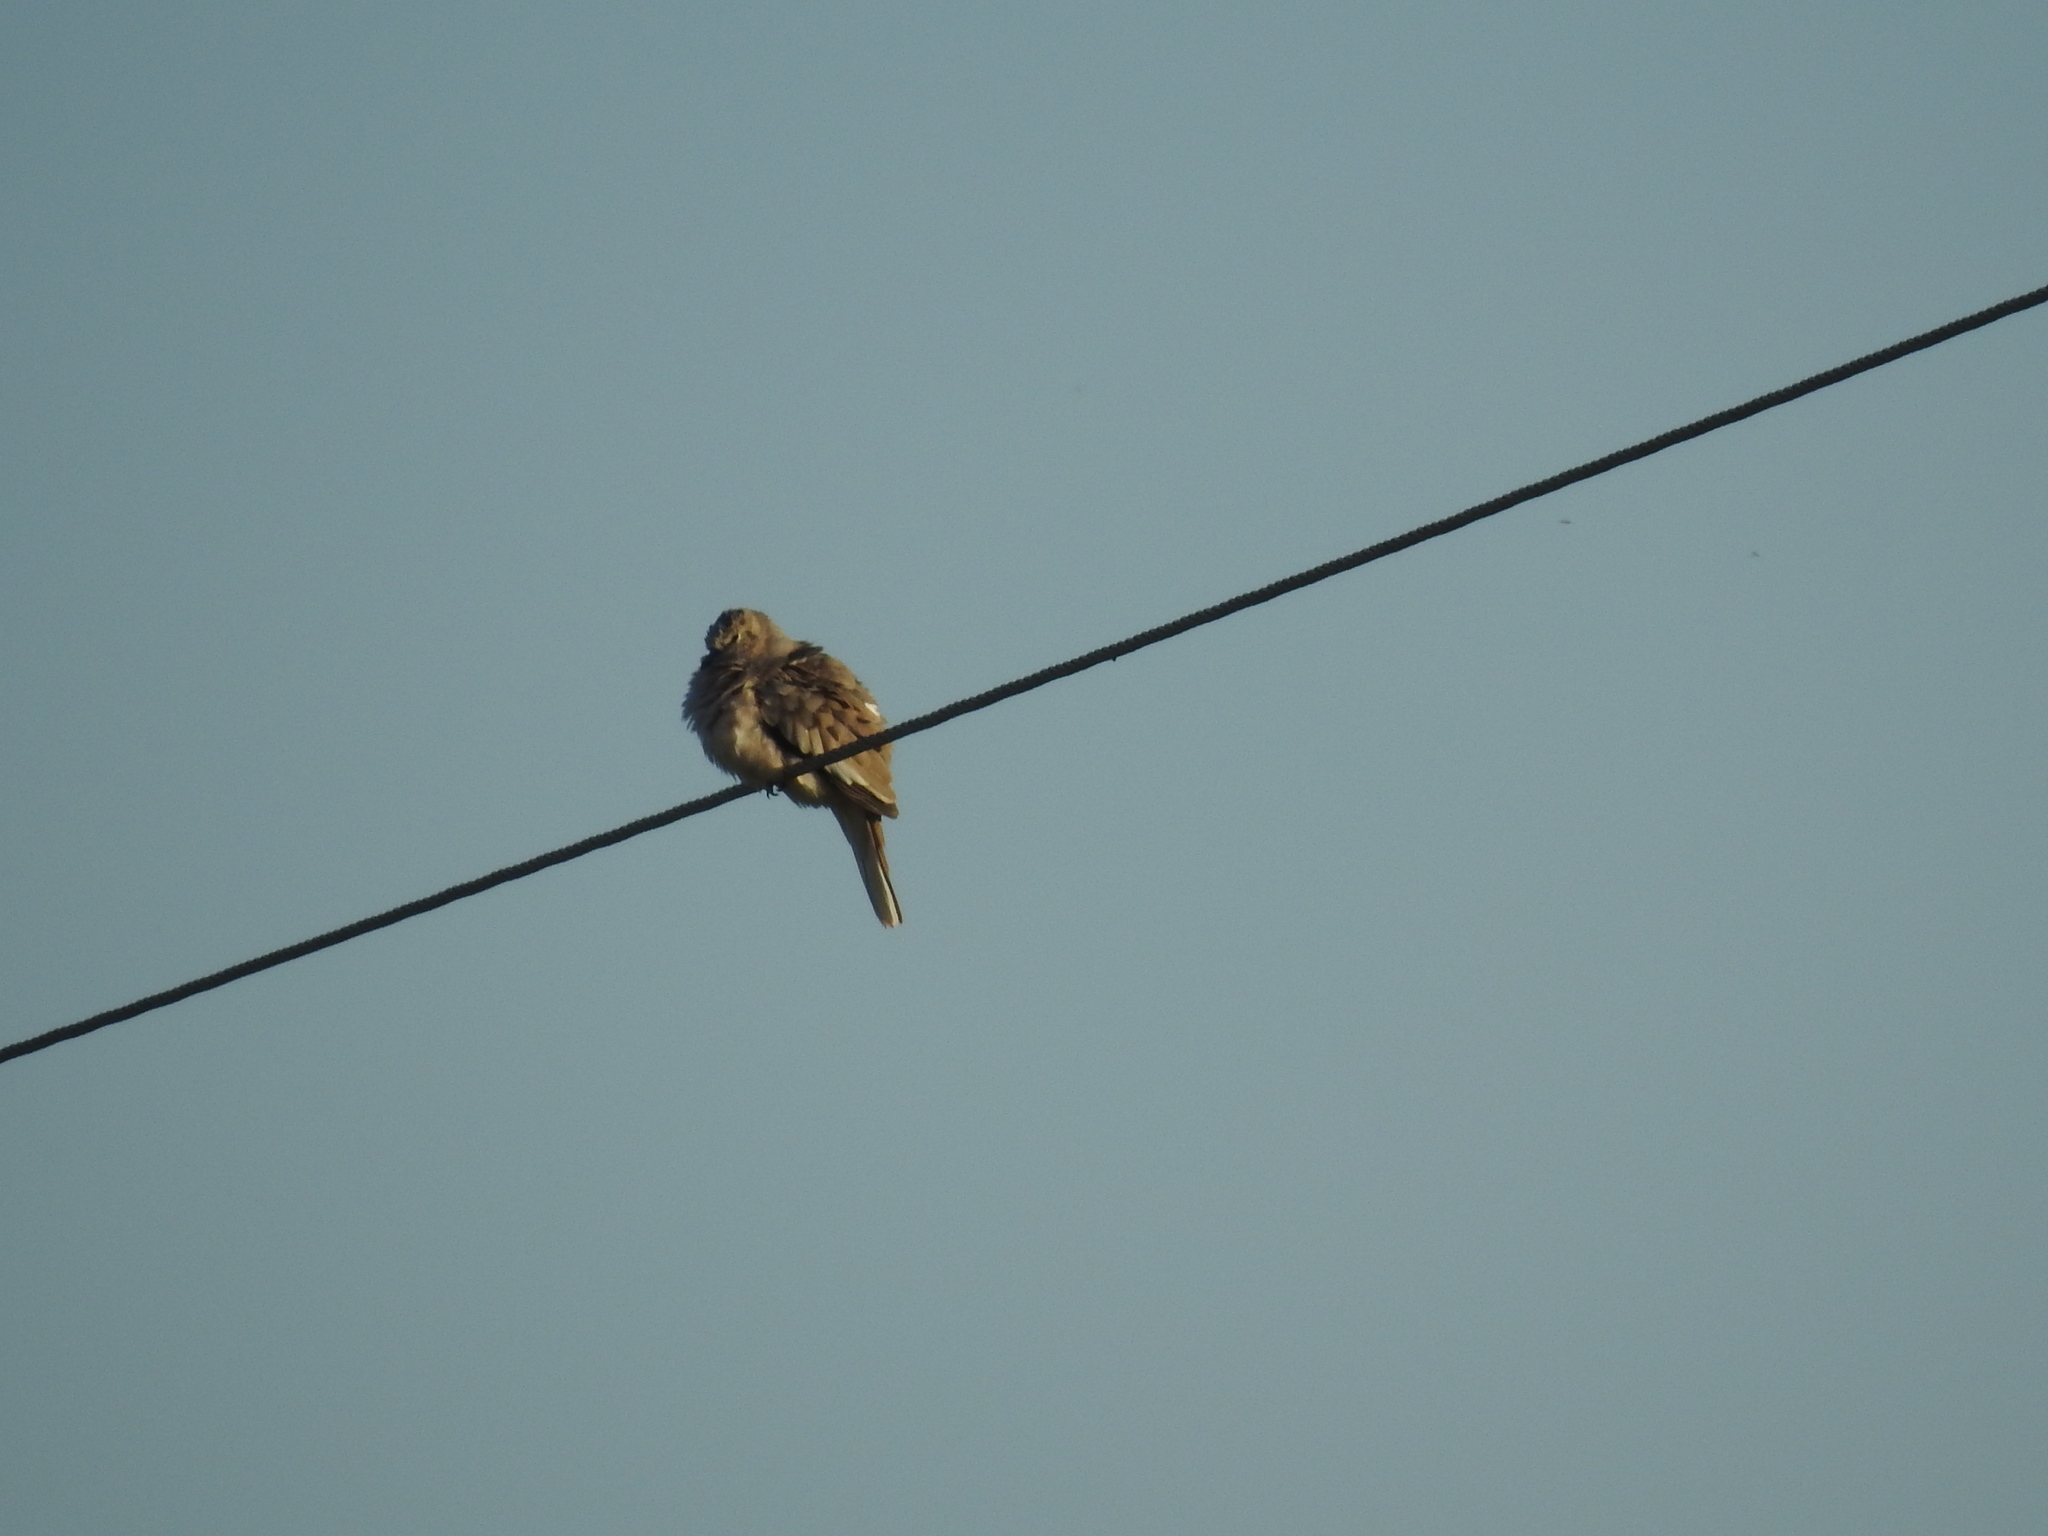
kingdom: Animalia
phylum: Chordata
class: Aves
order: Columbiformes
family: Columbidae
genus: Columbina
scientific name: Columbina picui
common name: Picui ground dove
